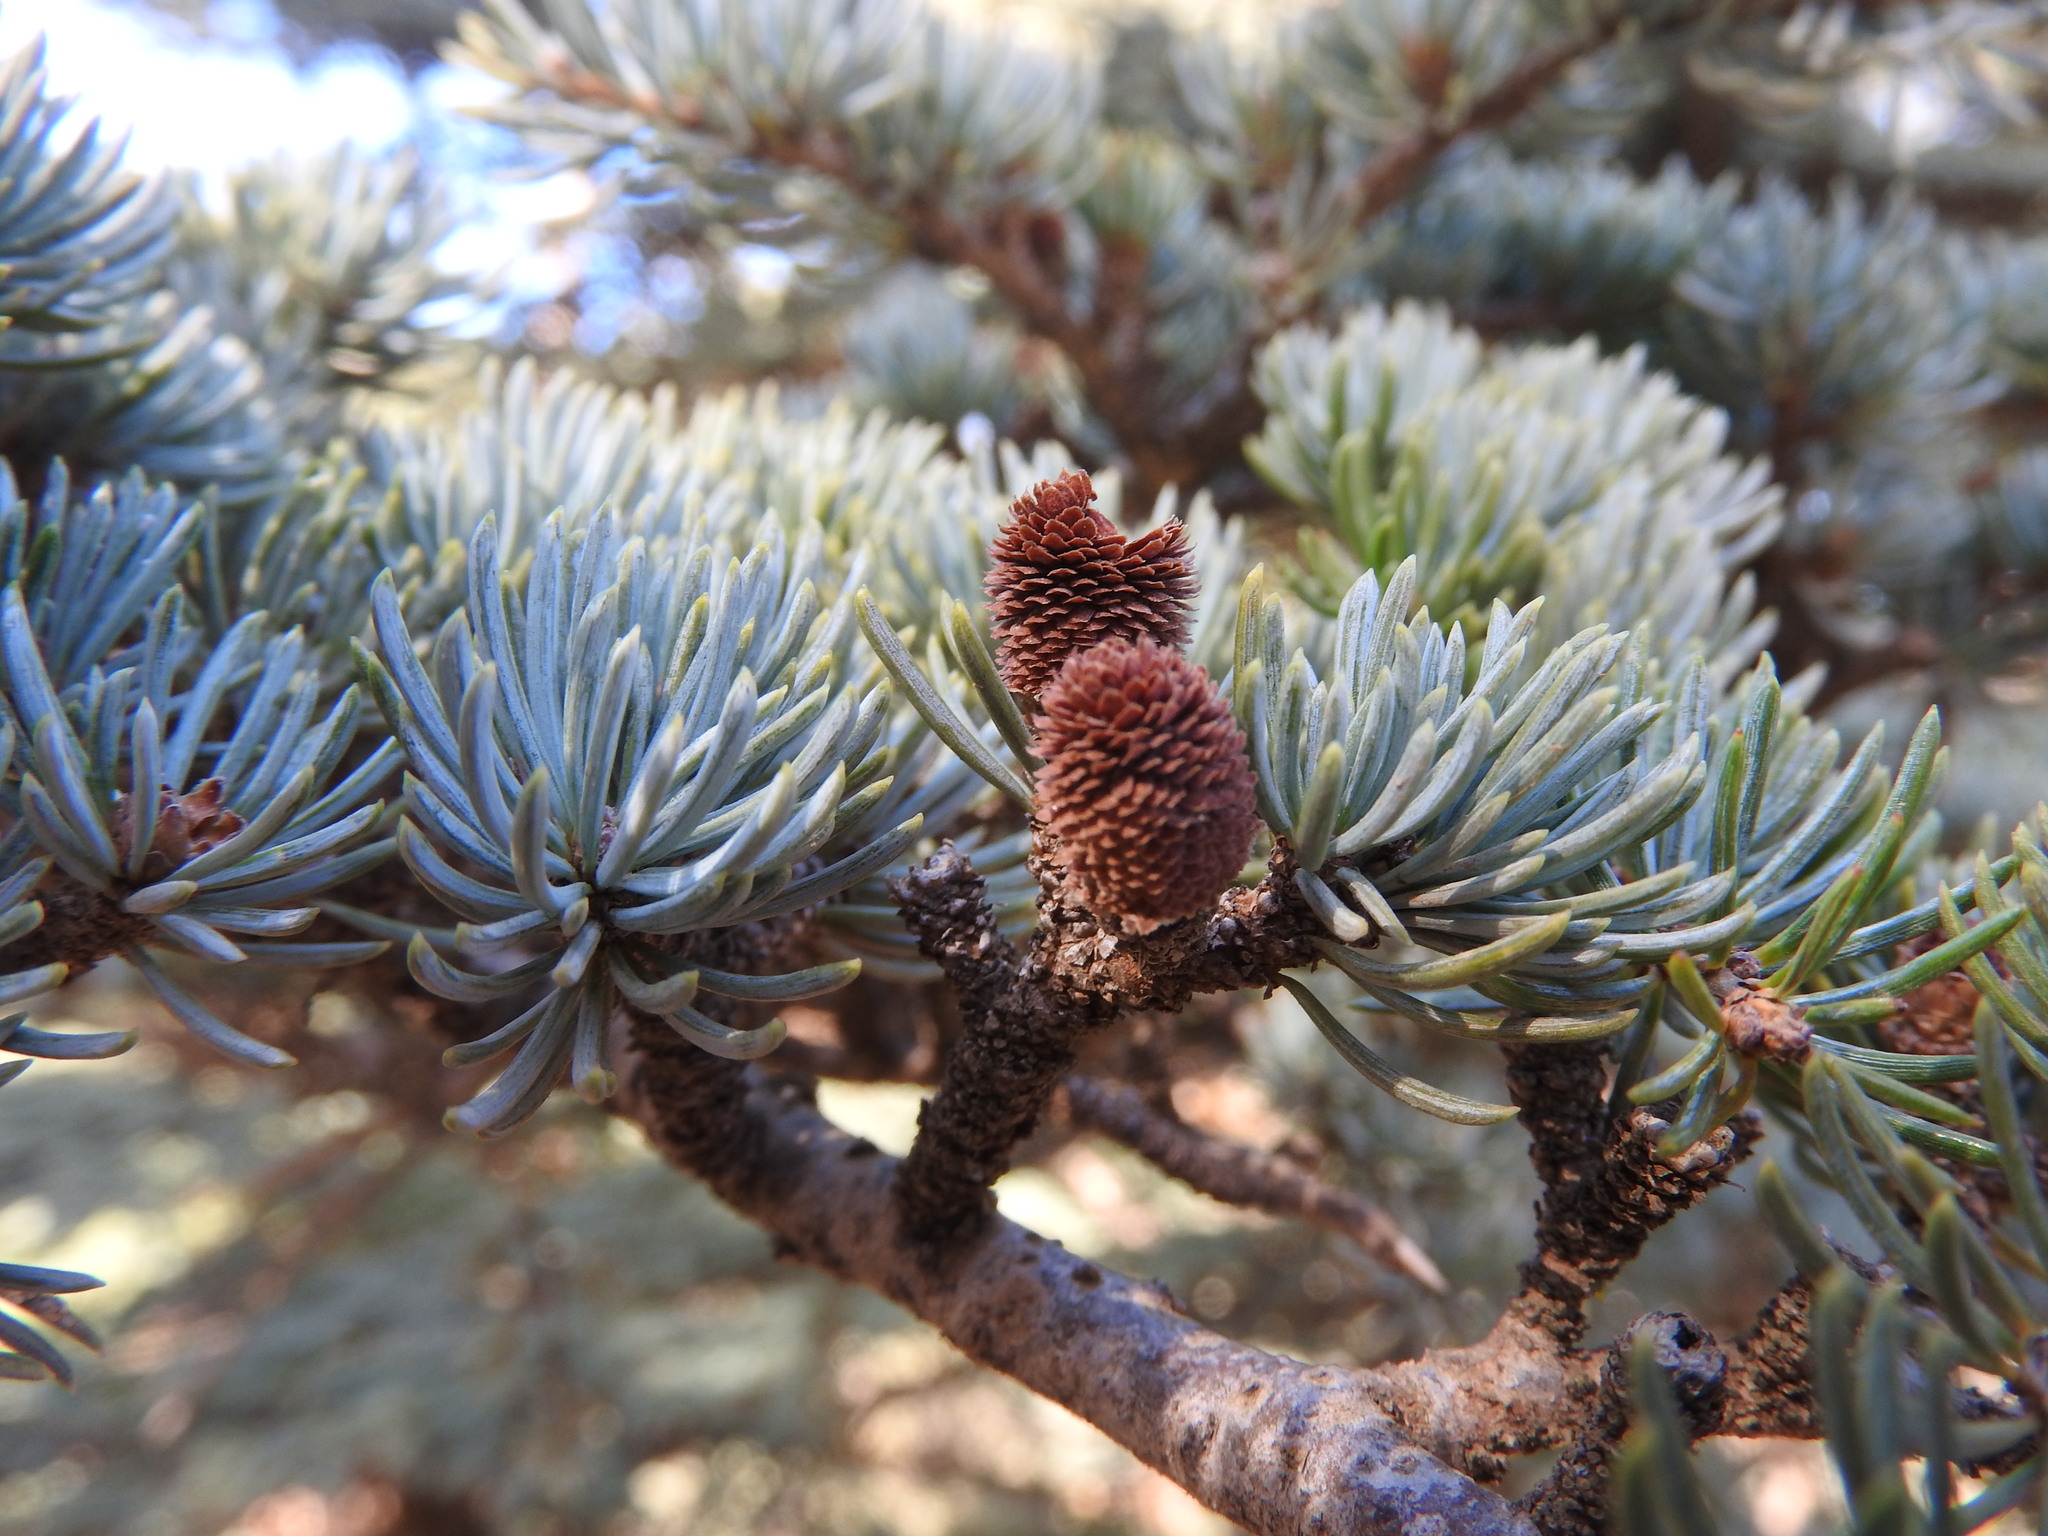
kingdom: Plantae
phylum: Tracheophyta
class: Pinopsida
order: Pinales
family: Pinaceae
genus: Cedrus
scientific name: Cedrus atlantica
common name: Atlas cedar
